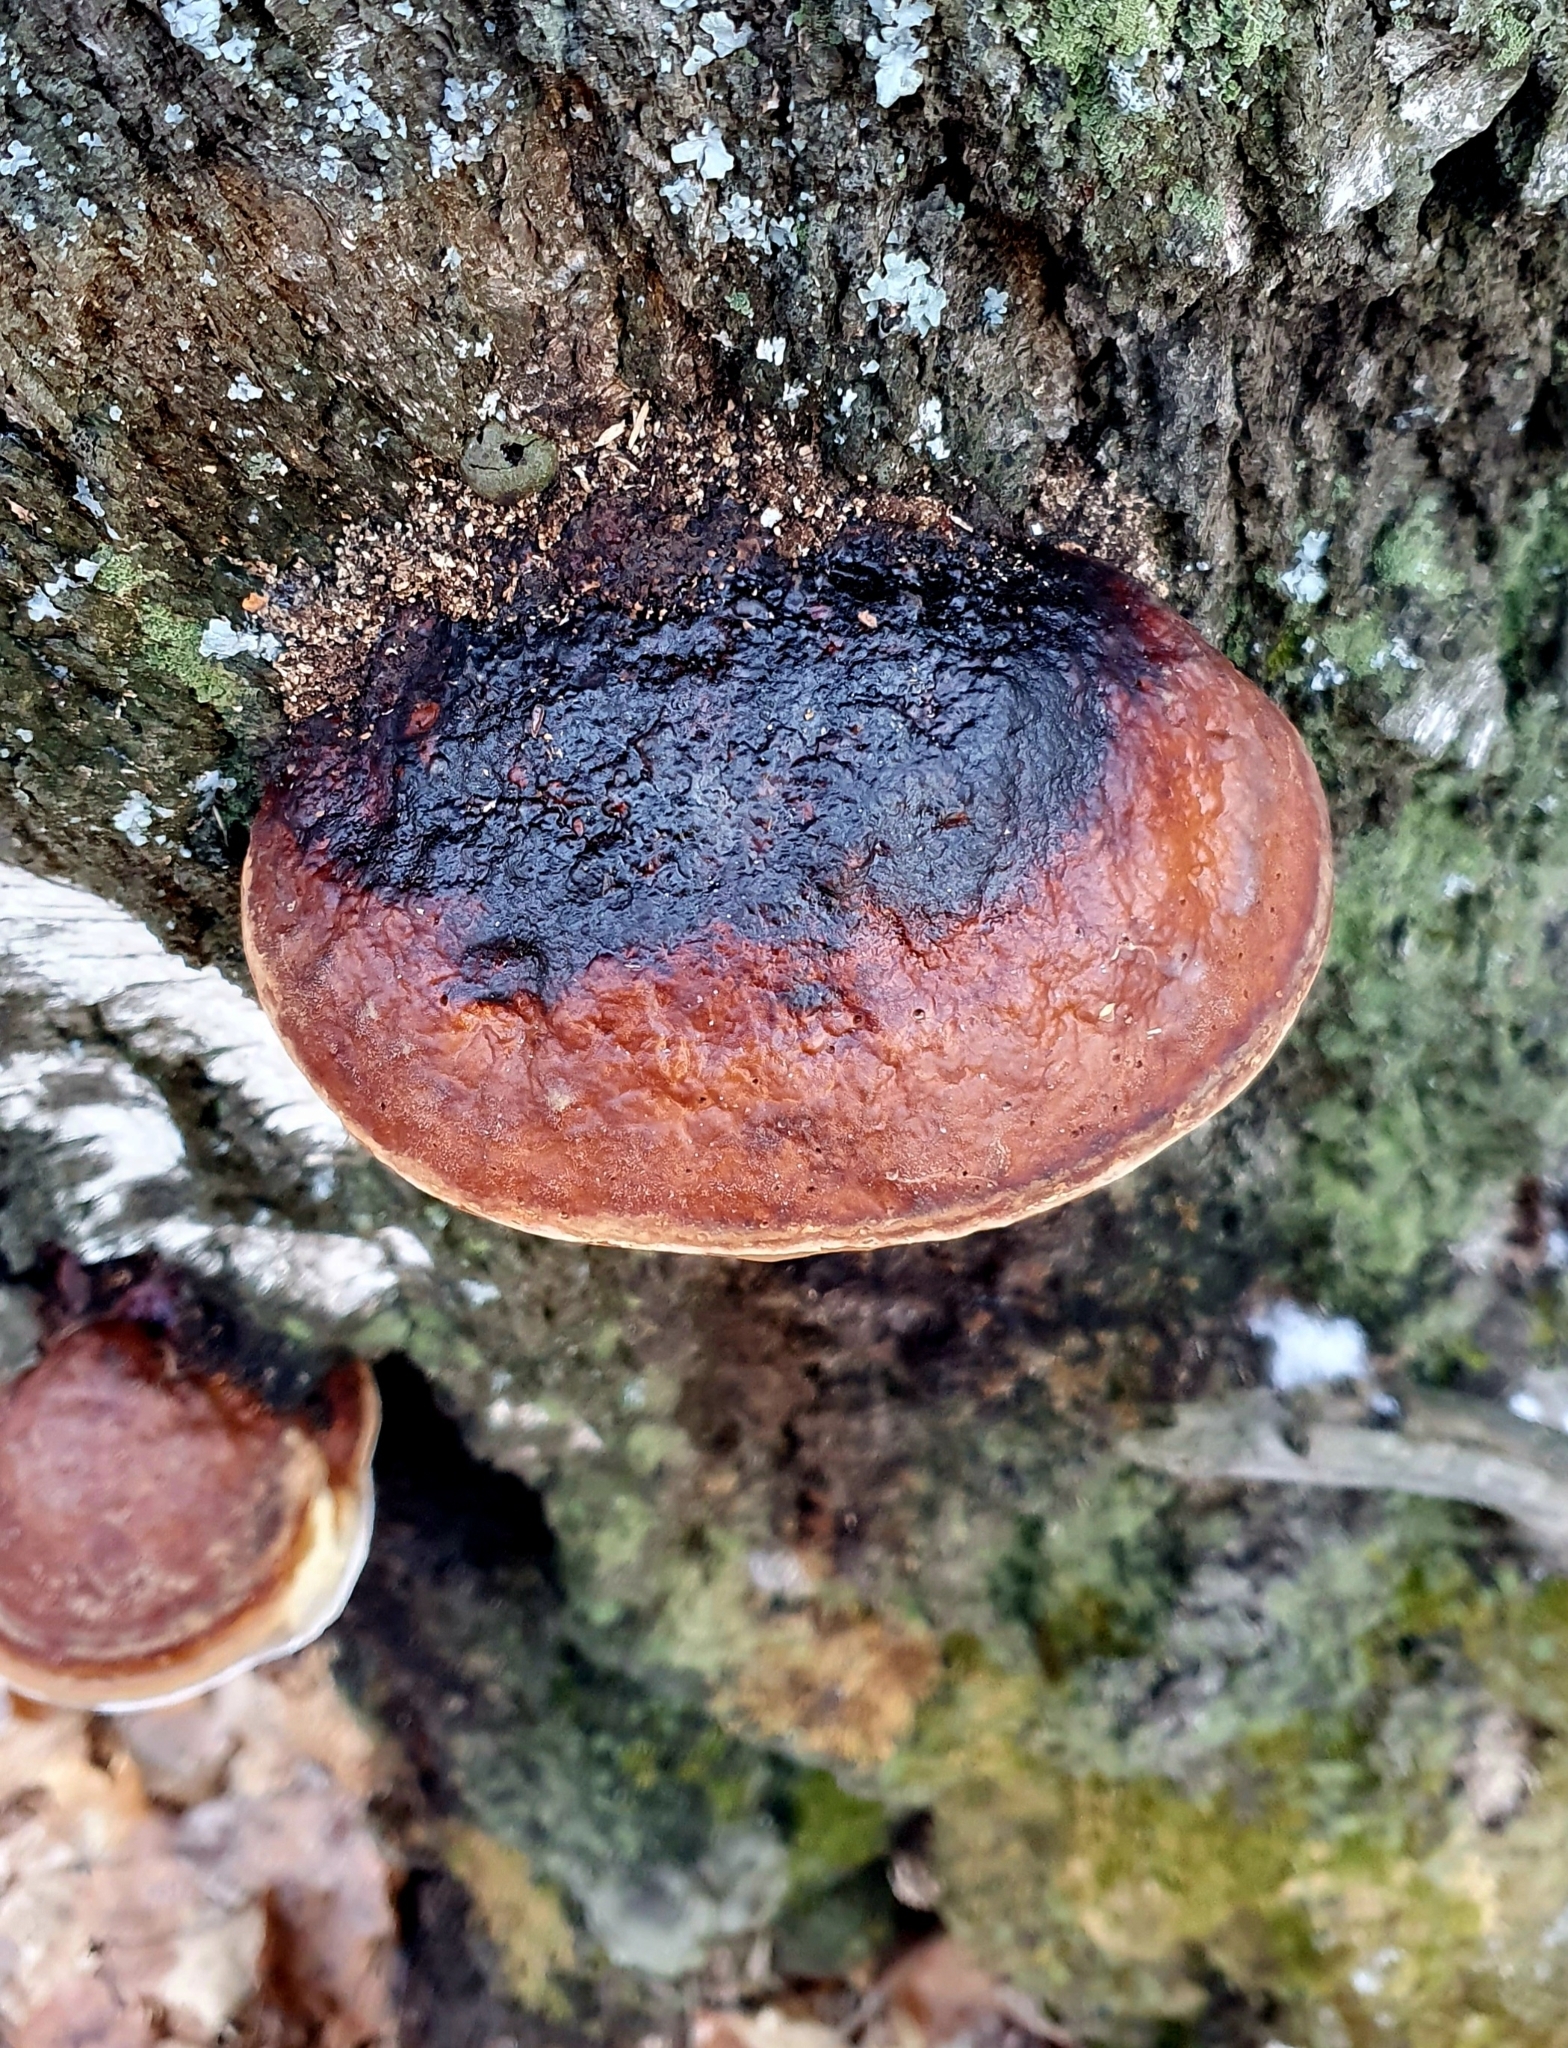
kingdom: Fungi
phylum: Basidiomycota
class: Agaricomycetes
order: Polyporales
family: Fomitopsidaceae
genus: Fomitopsis
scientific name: Fomitopsis pinicola
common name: Red-belted bracket
